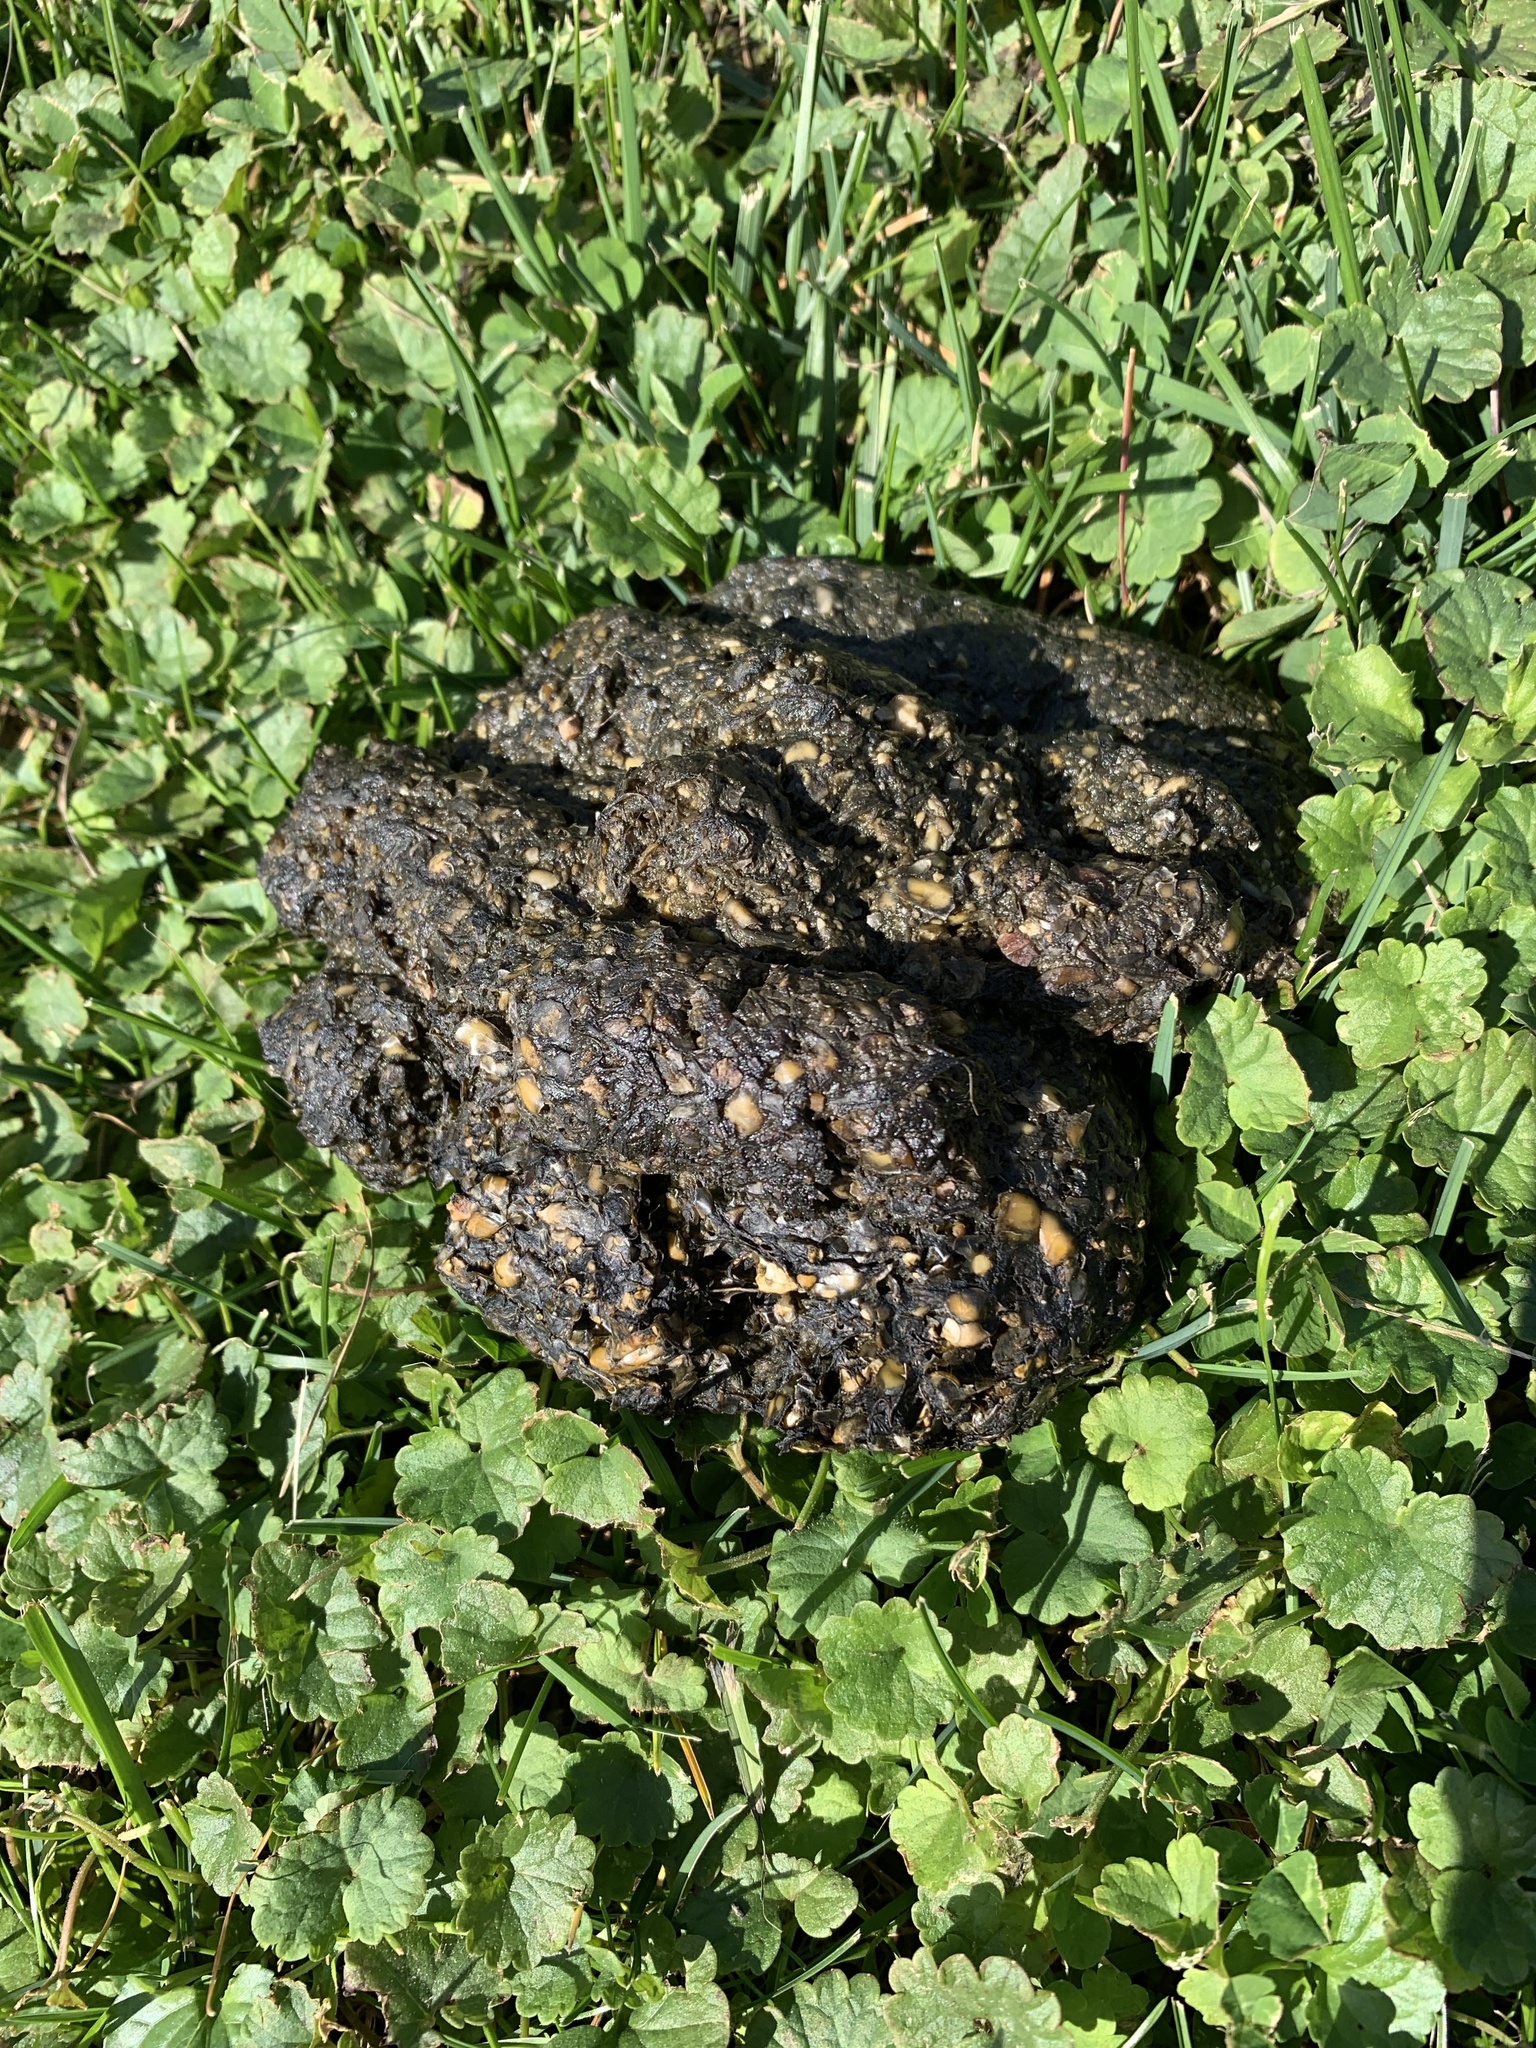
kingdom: Animalia
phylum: Chordata
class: Mammalia
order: Carnivora
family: Ursidae
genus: Ursus
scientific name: Ursus americanus
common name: American black bear
